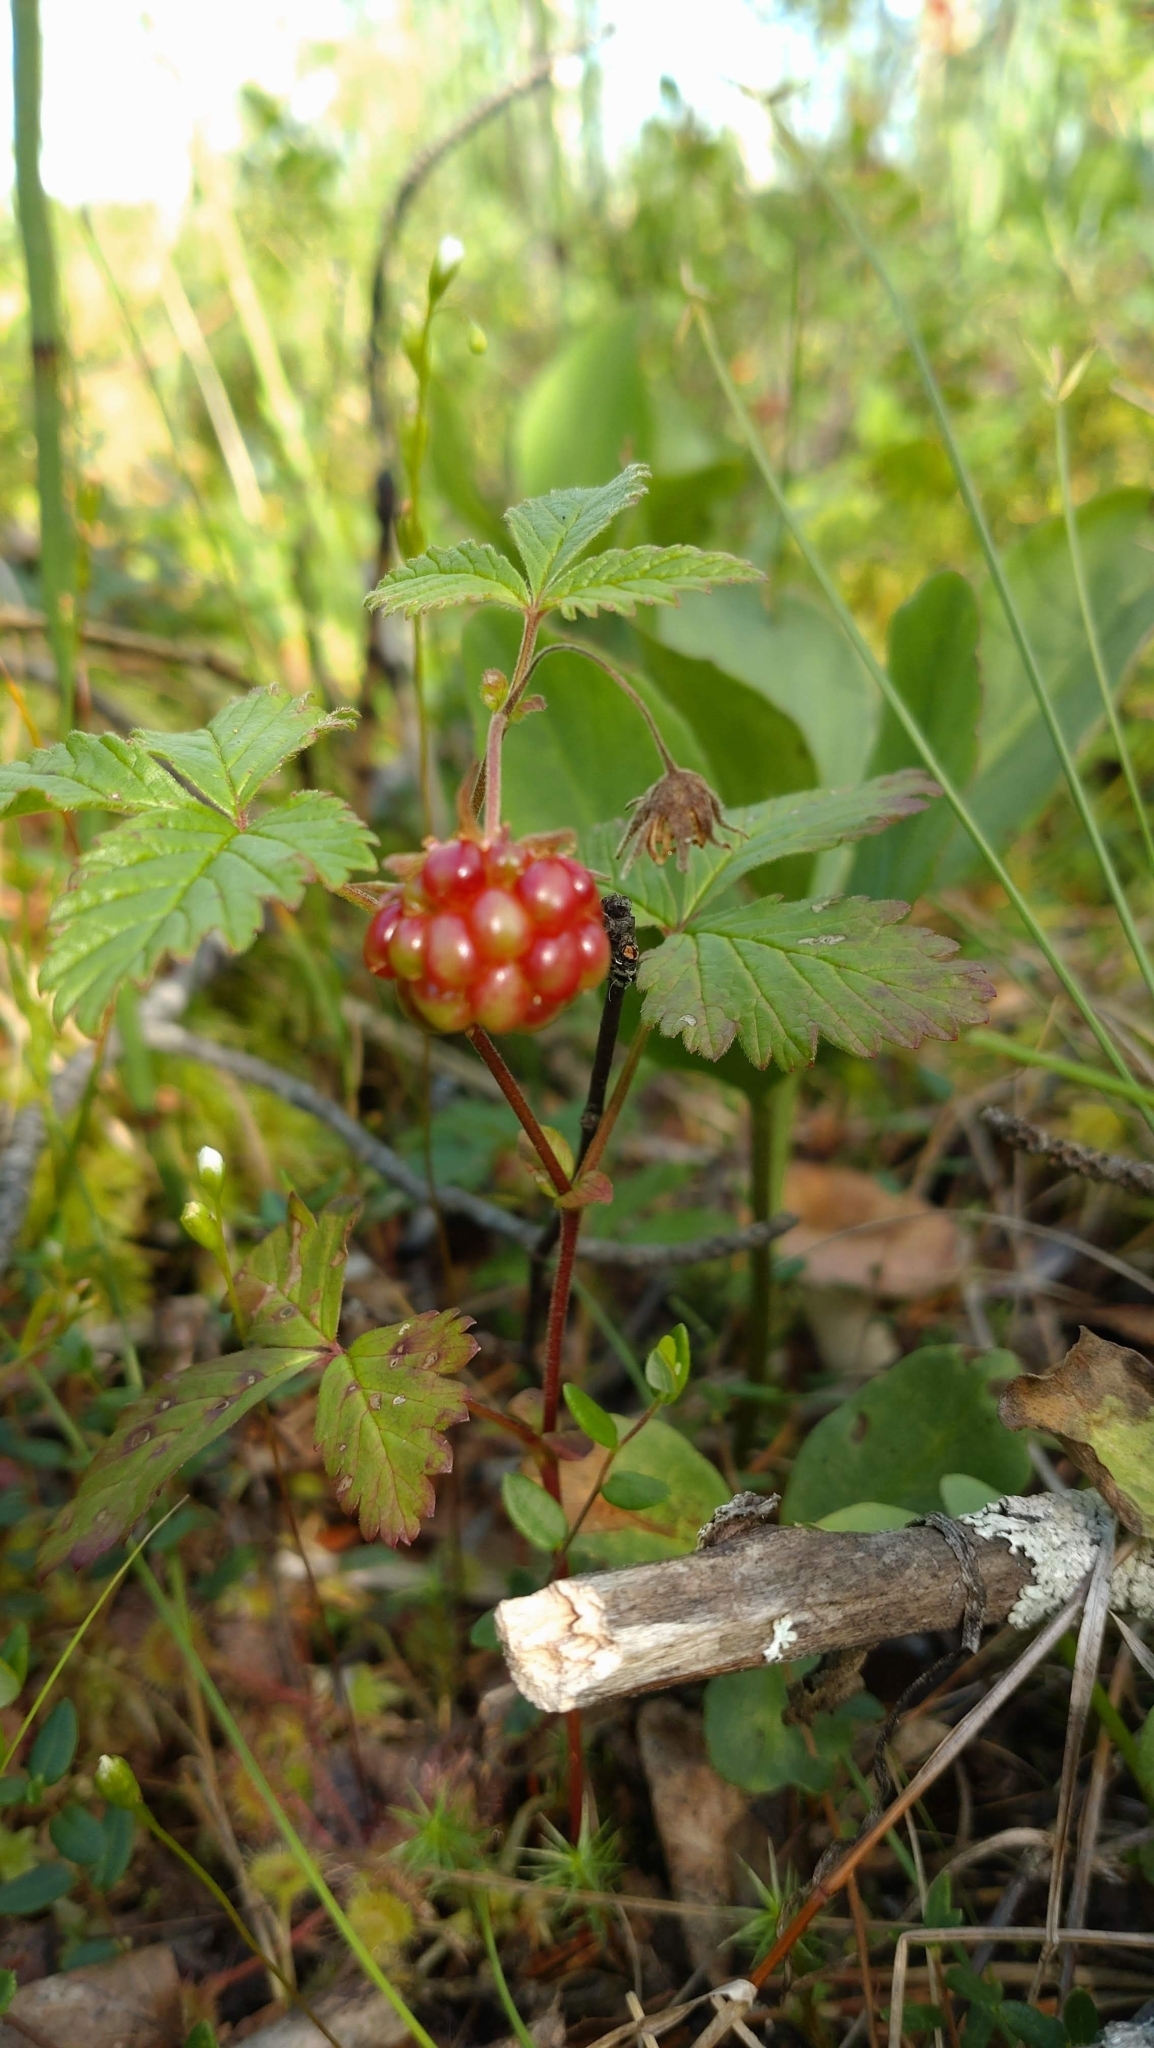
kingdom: Plantae
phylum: Tracheophyta
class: Magnoliopsida
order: Rosales
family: Rosaceae
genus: Rubus
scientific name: Rubus arcticus
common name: Arctic bramble
